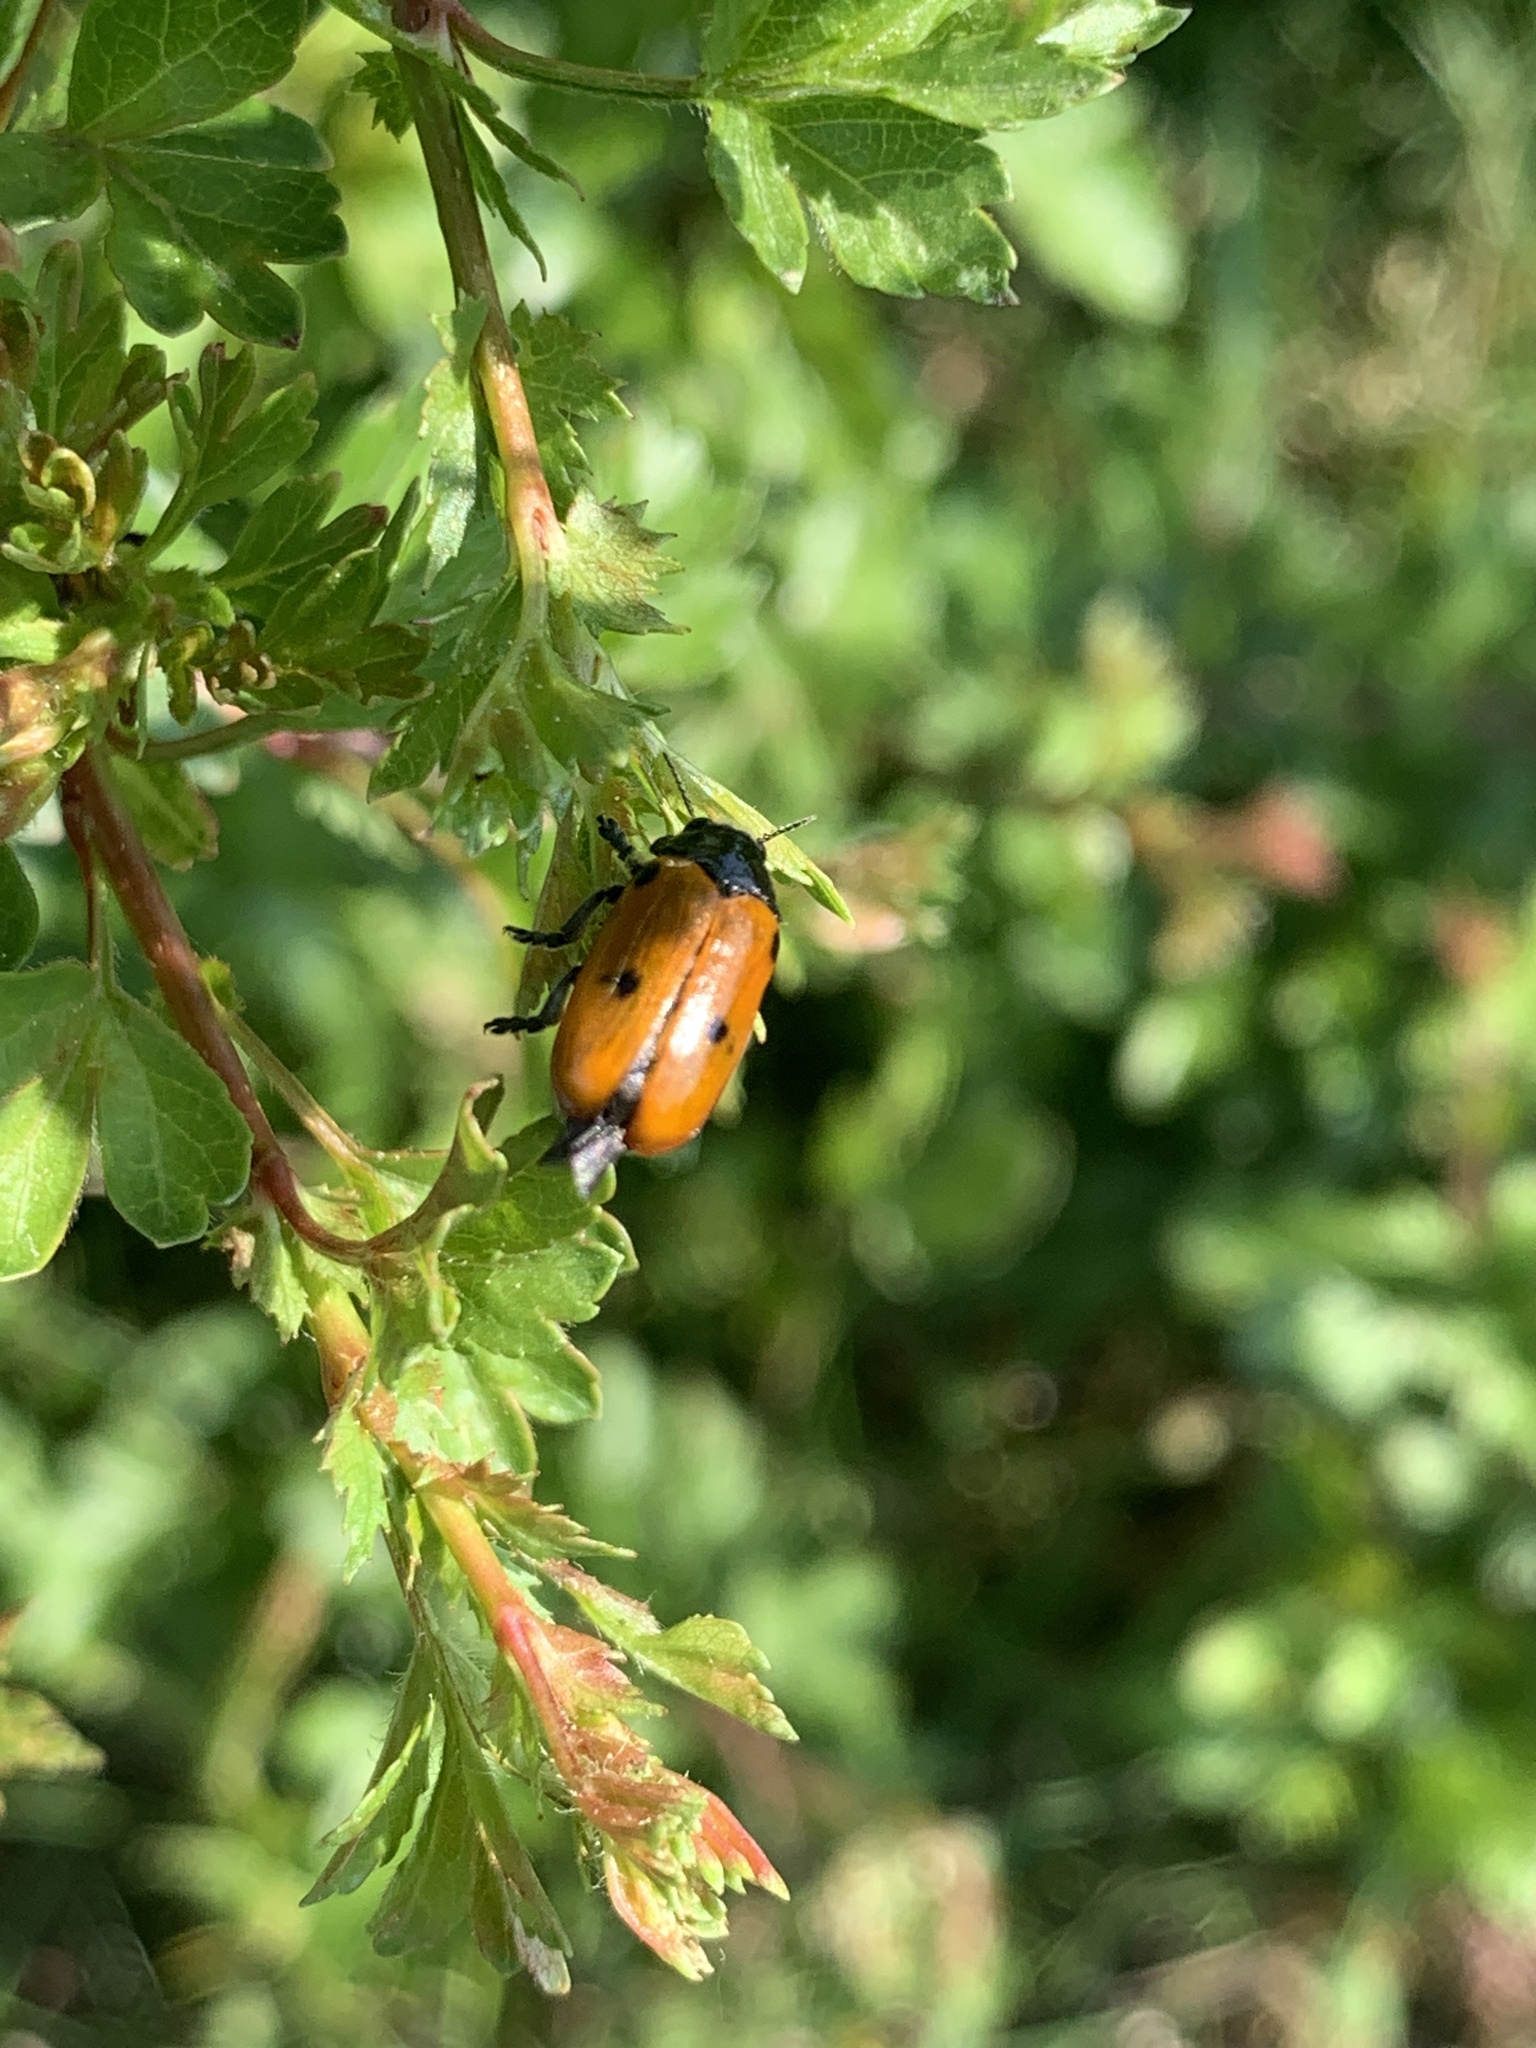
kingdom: Animalia
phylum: Arthropoda
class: Insecta
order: Coleoptera
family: Chrysomelidae
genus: Clytra
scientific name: Clytra quadripunctata
